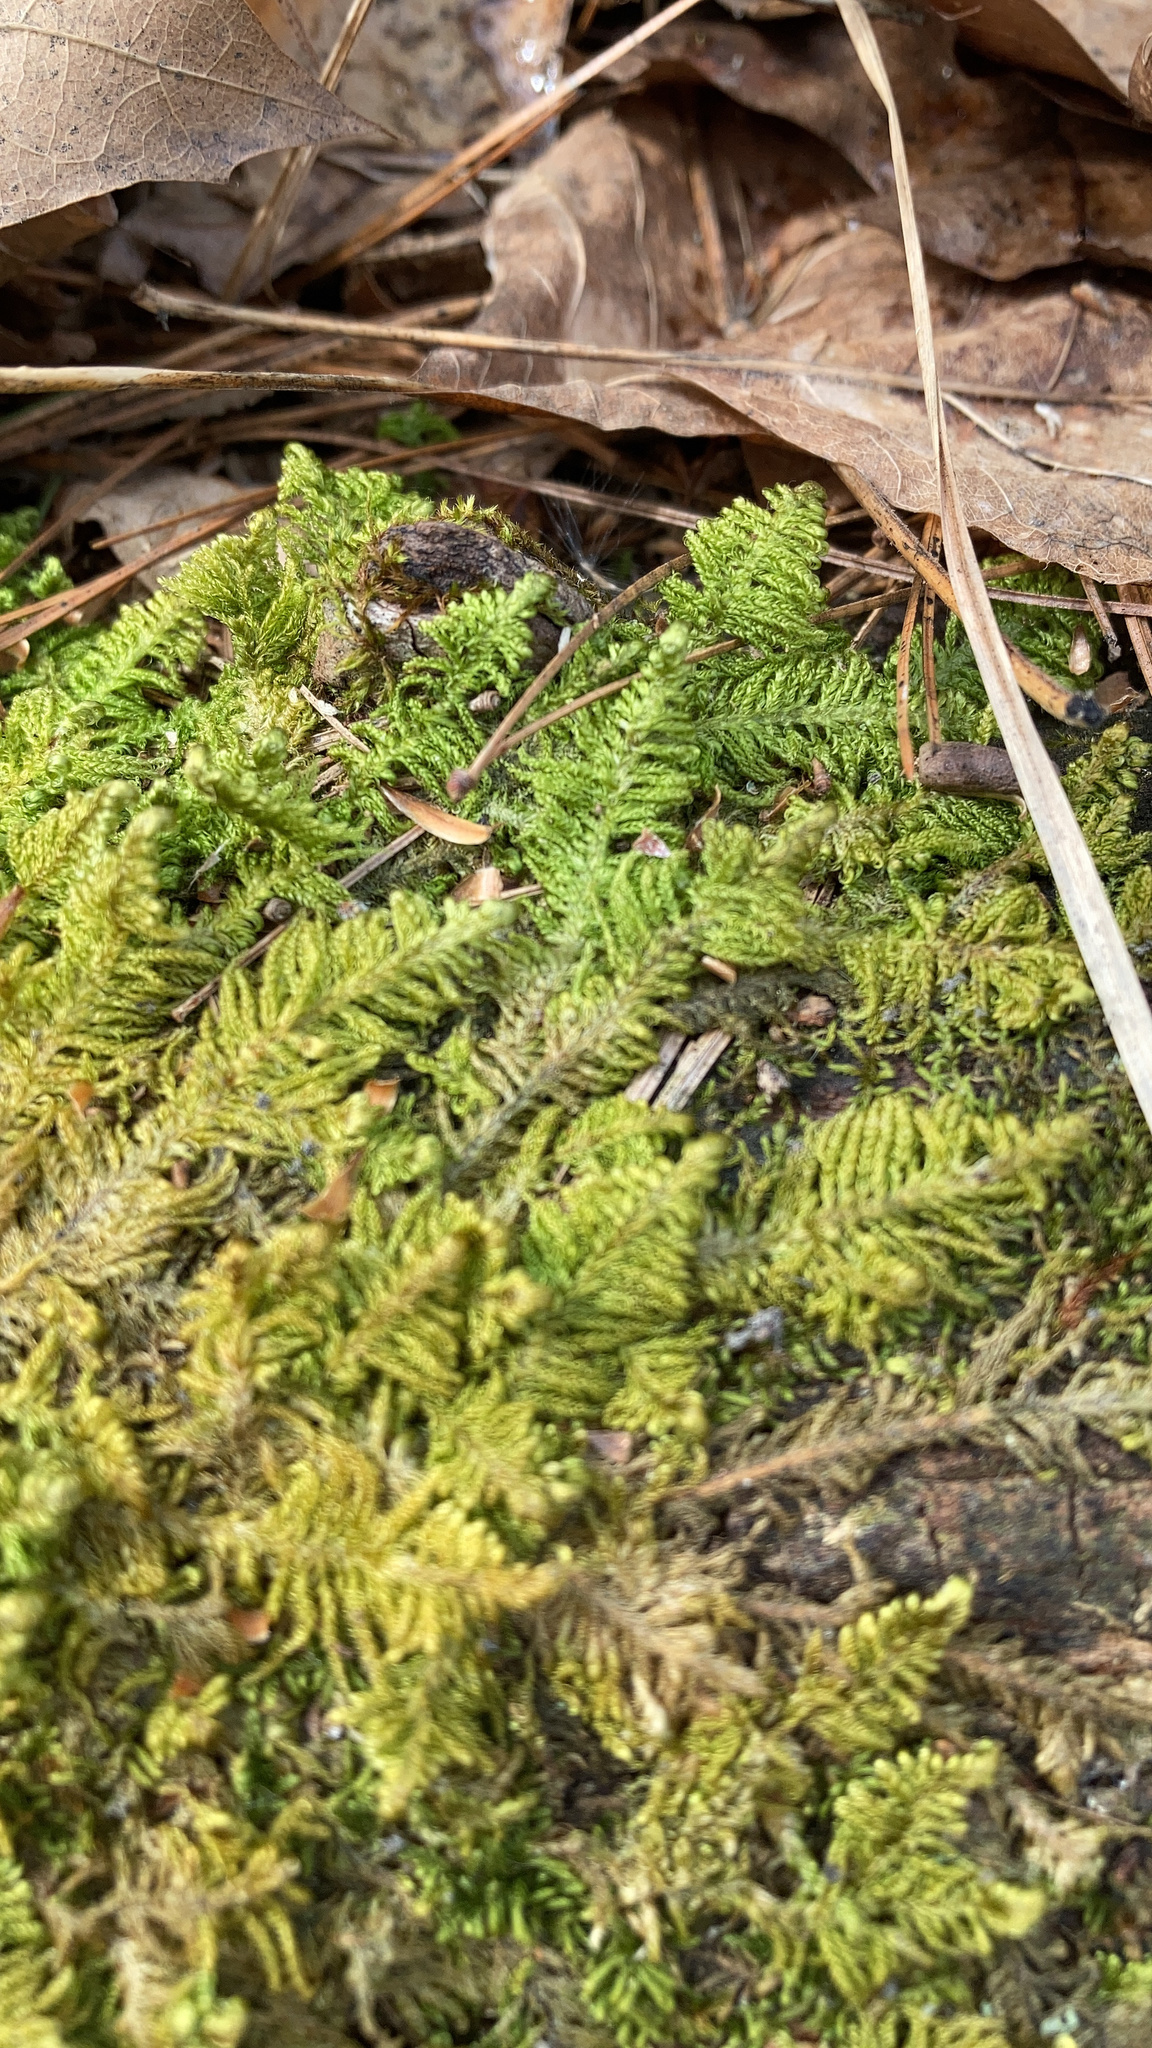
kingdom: Plantae
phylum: Bryophyta
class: Bryopsida
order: Hypnales
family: Callicladiaceae
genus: Callicladium
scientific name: Callicladium imponens
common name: Brocade moss
